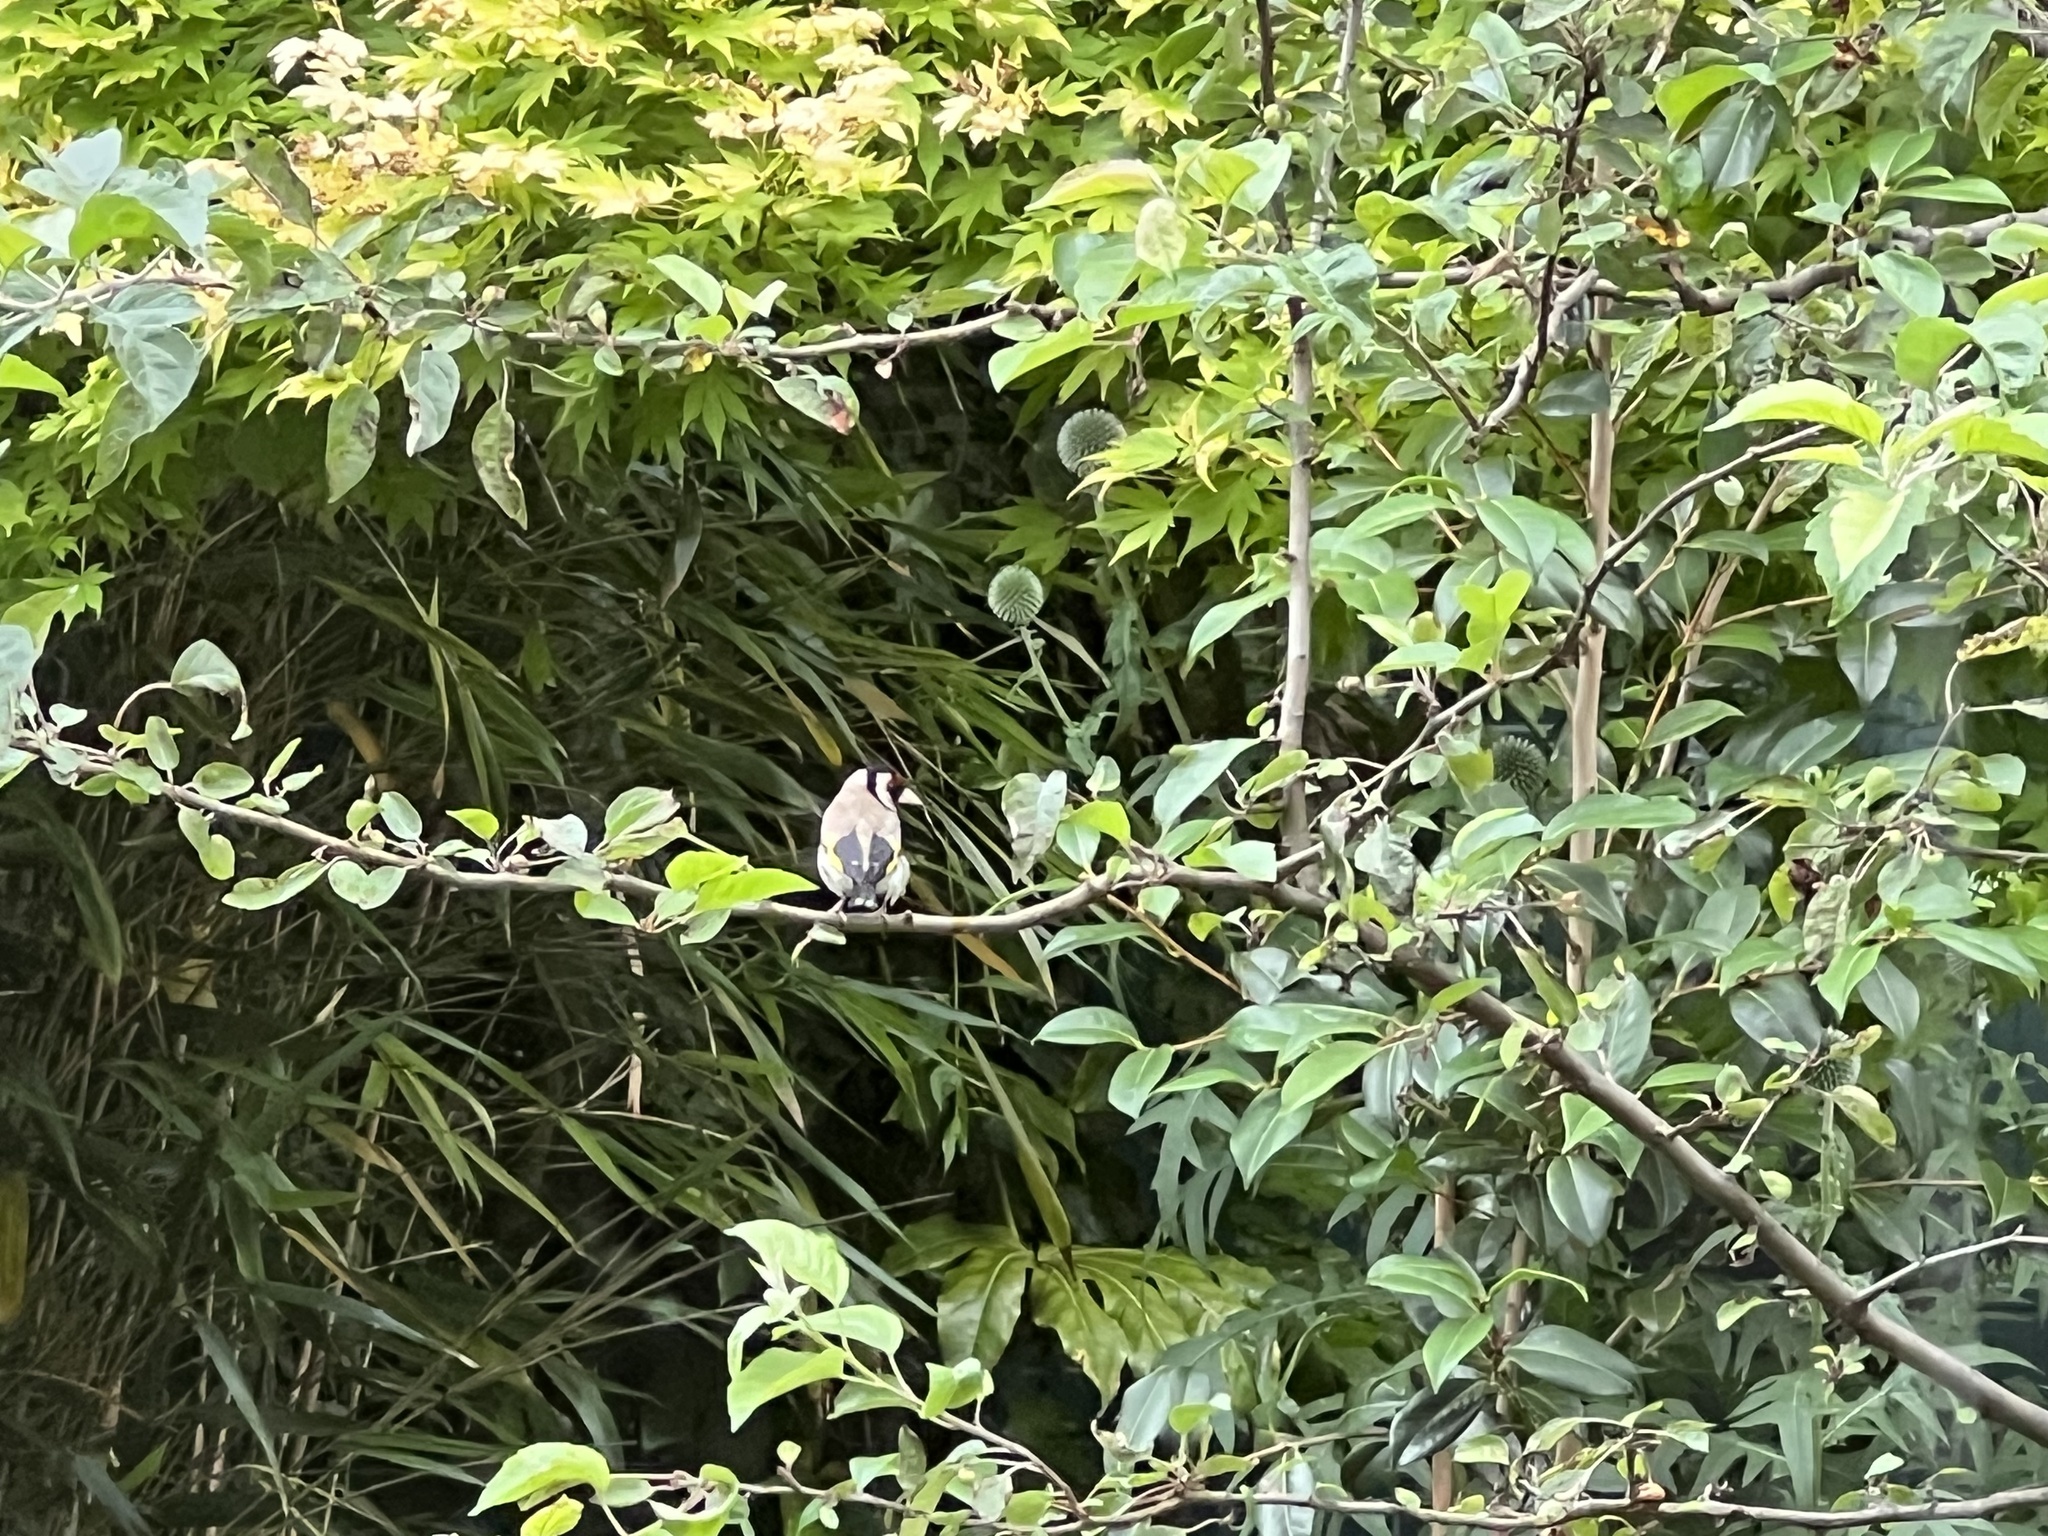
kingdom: Animalia
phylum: Chordata
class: Aves
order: Passeriformes
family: Fringillidae
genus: Carduelis
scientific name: Carduelis carduelis
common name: European goldfinch
